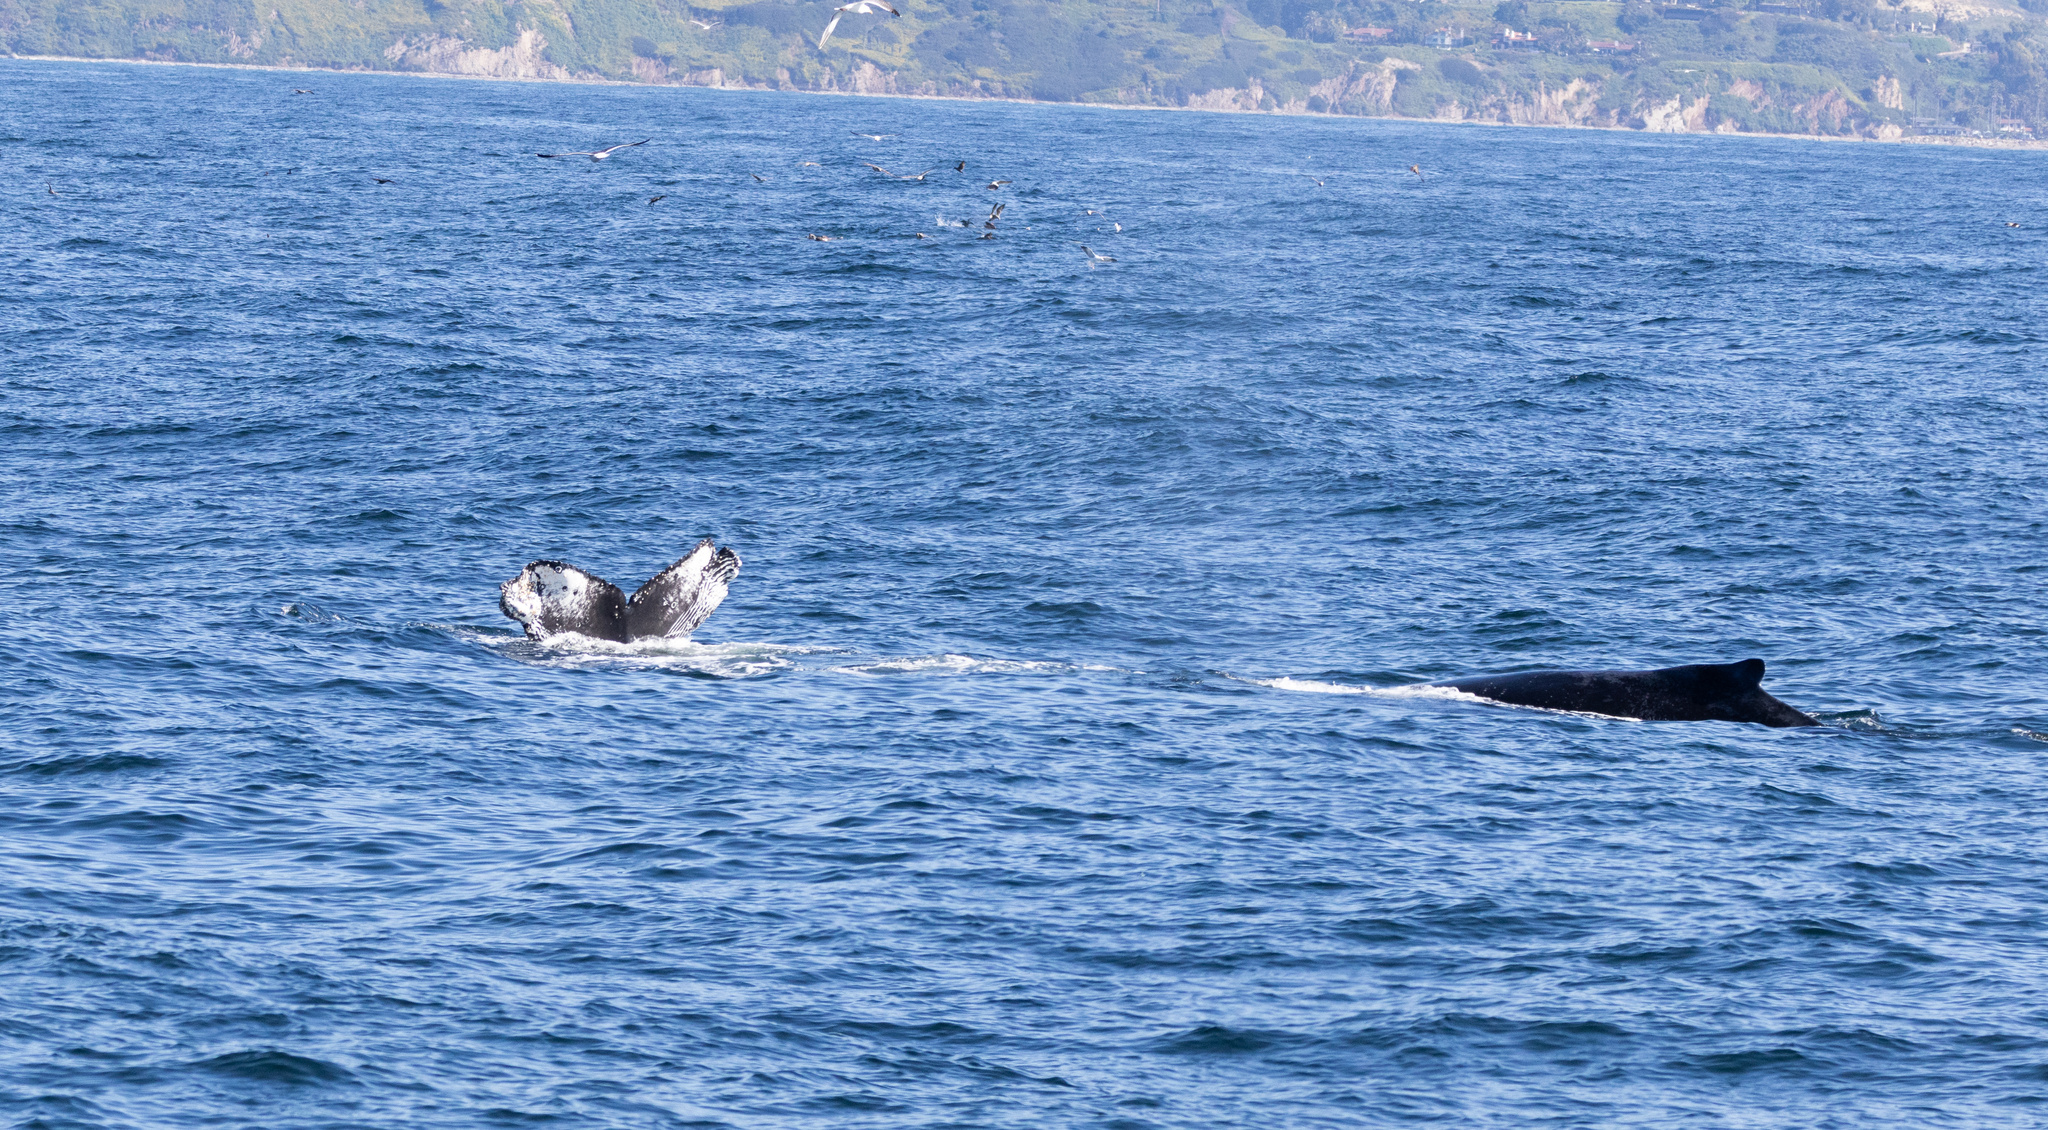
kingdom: Animalia
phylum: Chordata
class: Mammalia
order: Cetacea
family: Balaenopteridae
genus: Megaptera
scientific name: Megaptera novaeangliae
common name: Humpback whale
